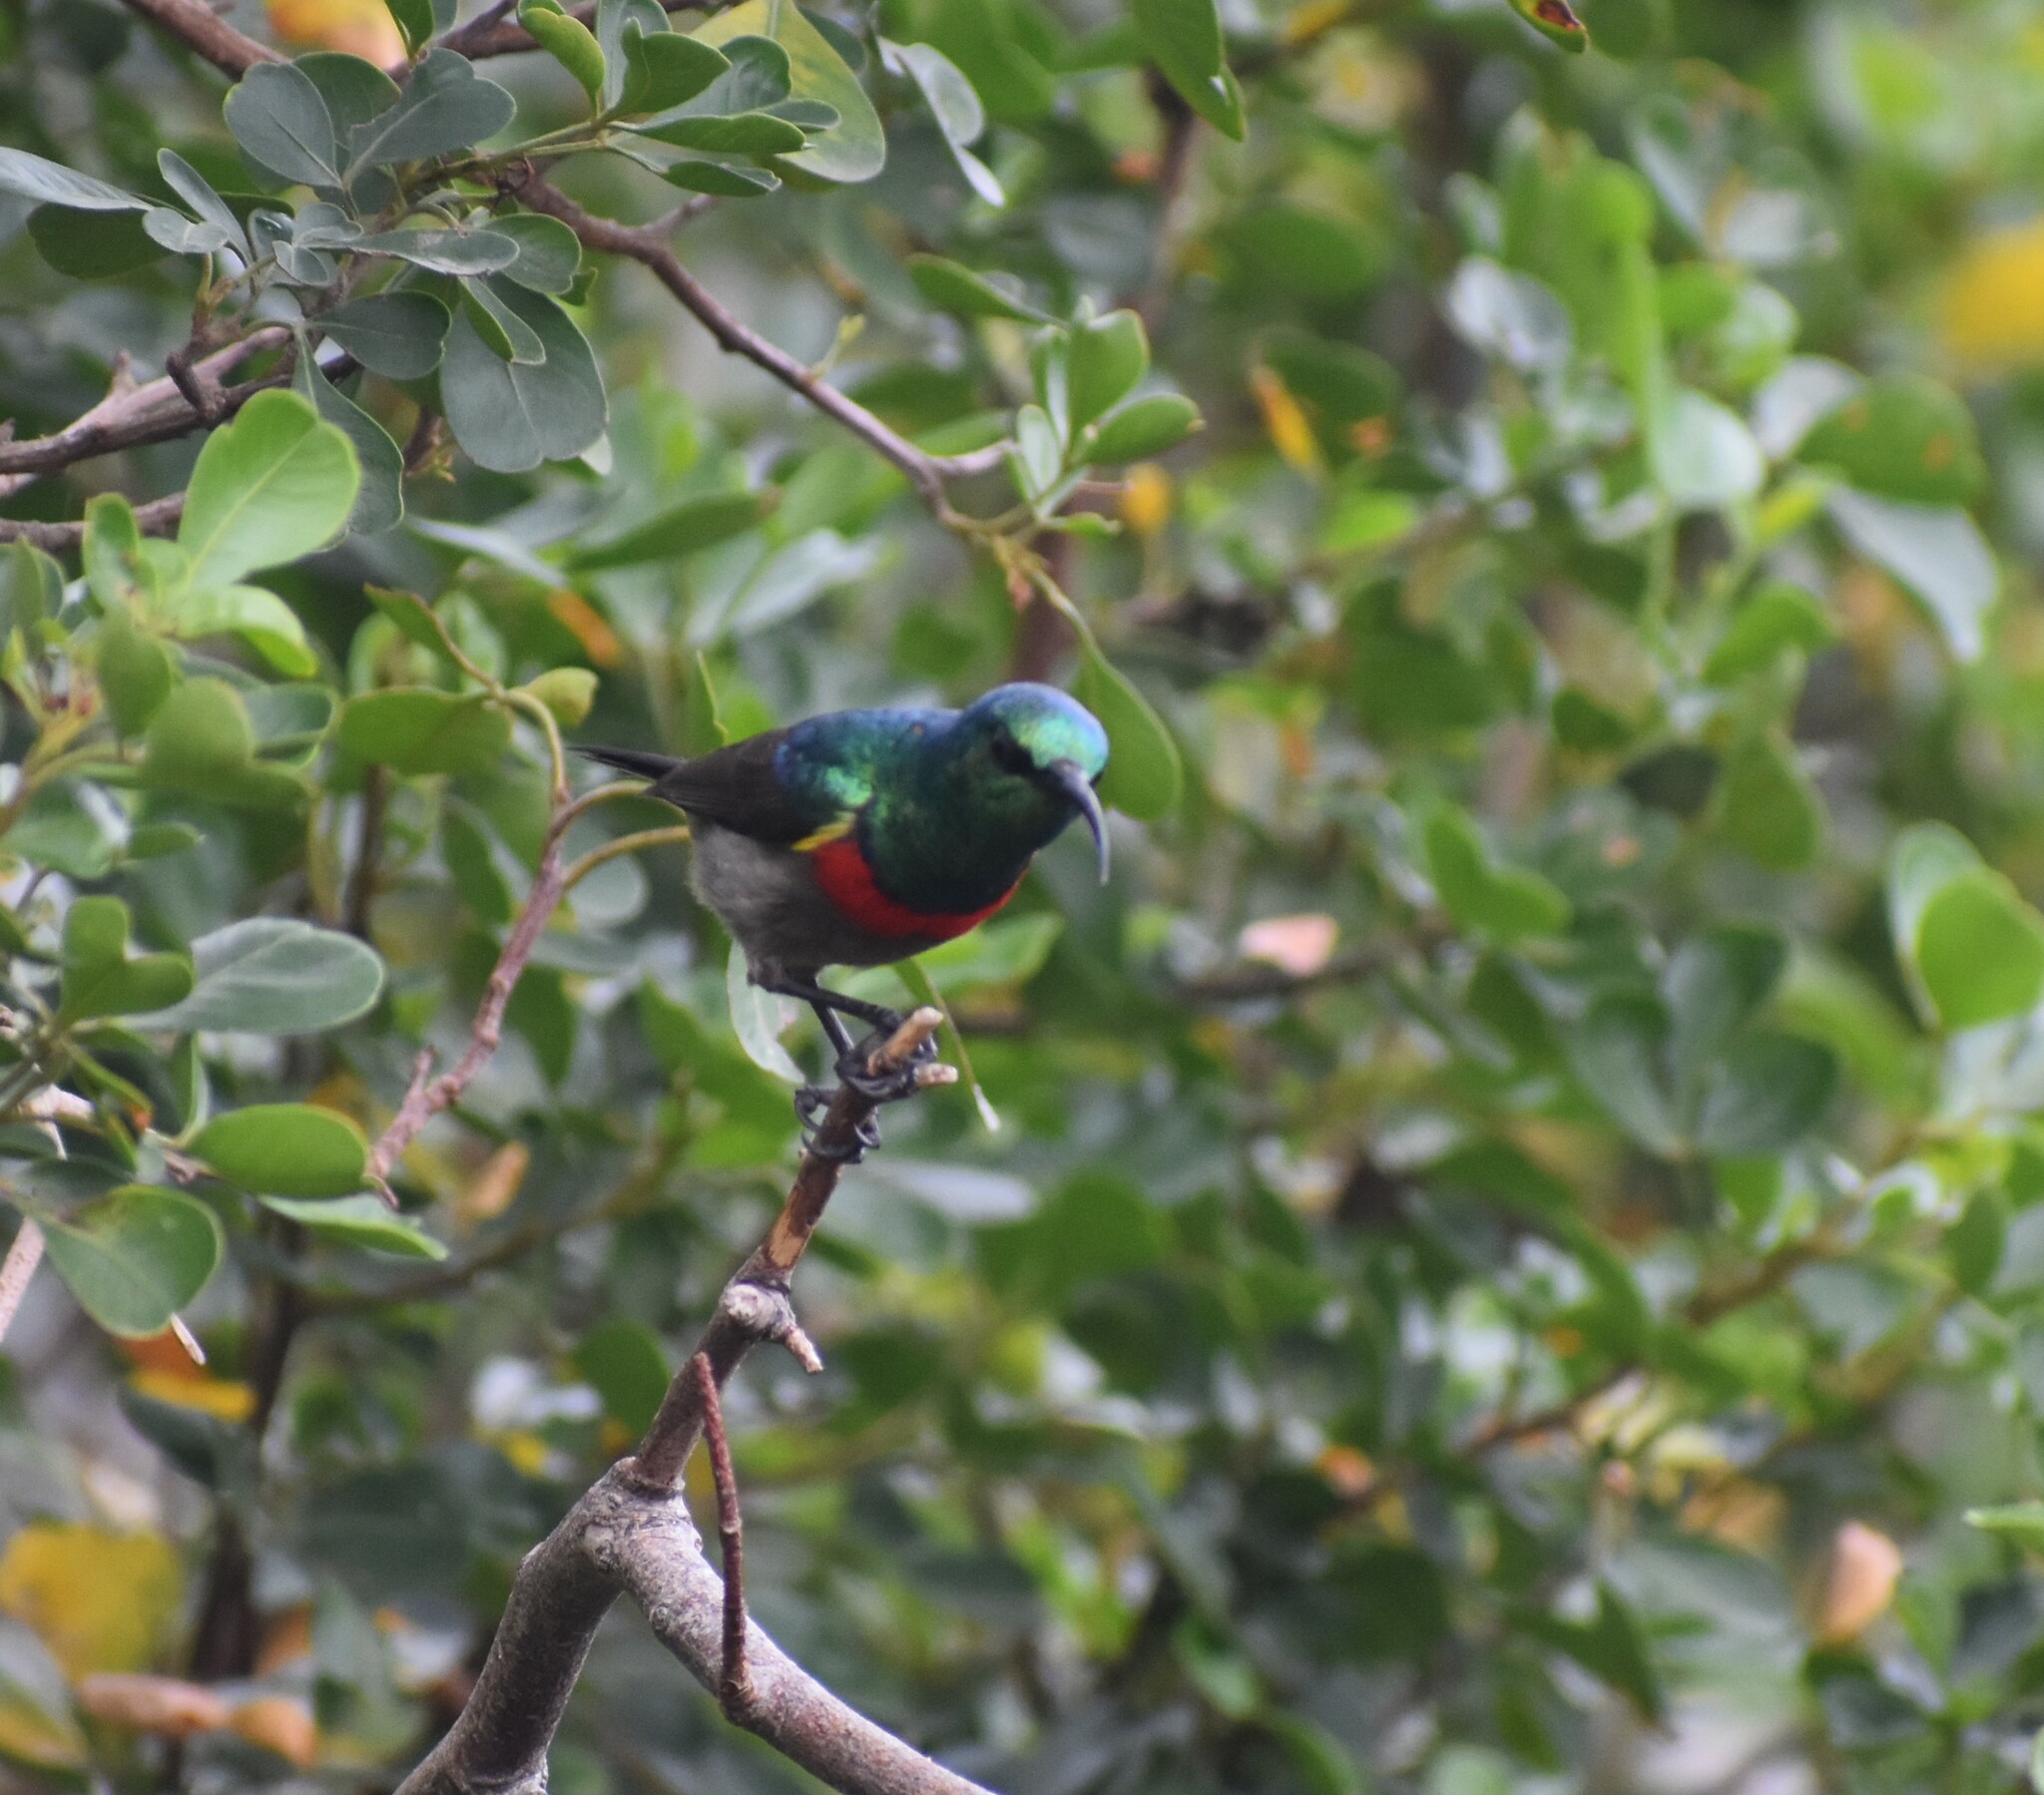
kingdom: Animalia
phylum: Chordata
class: Aves
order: Passeriformes
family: Nectariniidae
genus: Cinnyris
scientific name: Cinnyris chalybeus
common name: Southern double-collared sunbird
